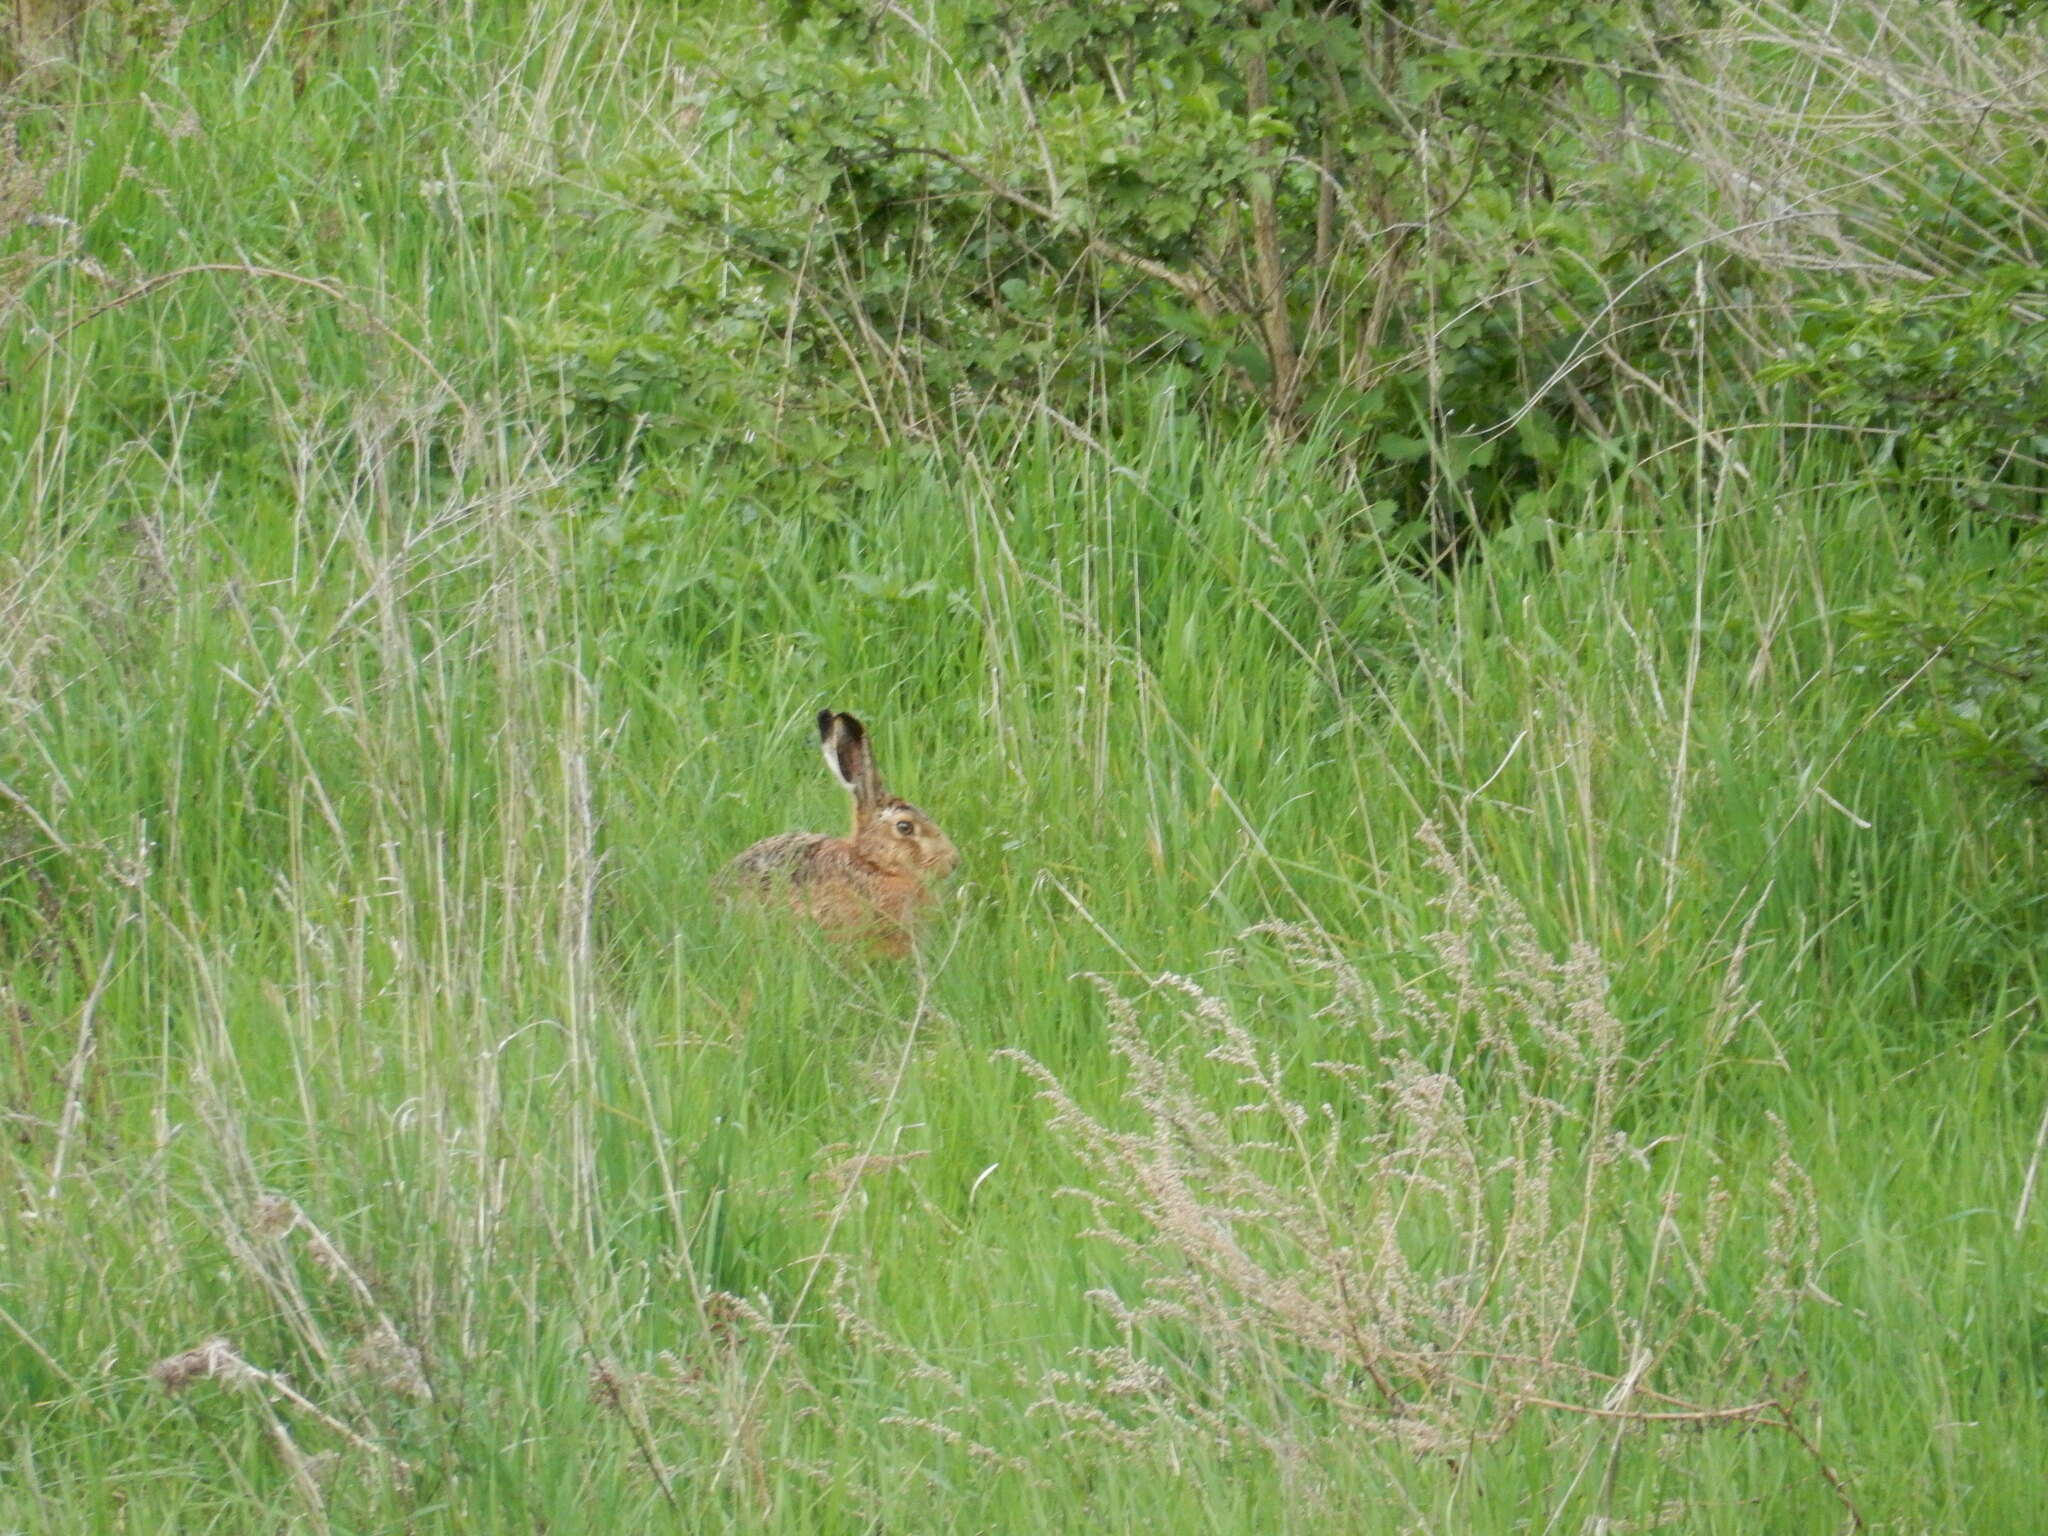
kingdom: Animalia
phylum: Chordata
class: Mammalia
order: Lagomorpha
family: Leporidae
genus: Lepus
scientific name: Lepus europaeus
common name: European hare
